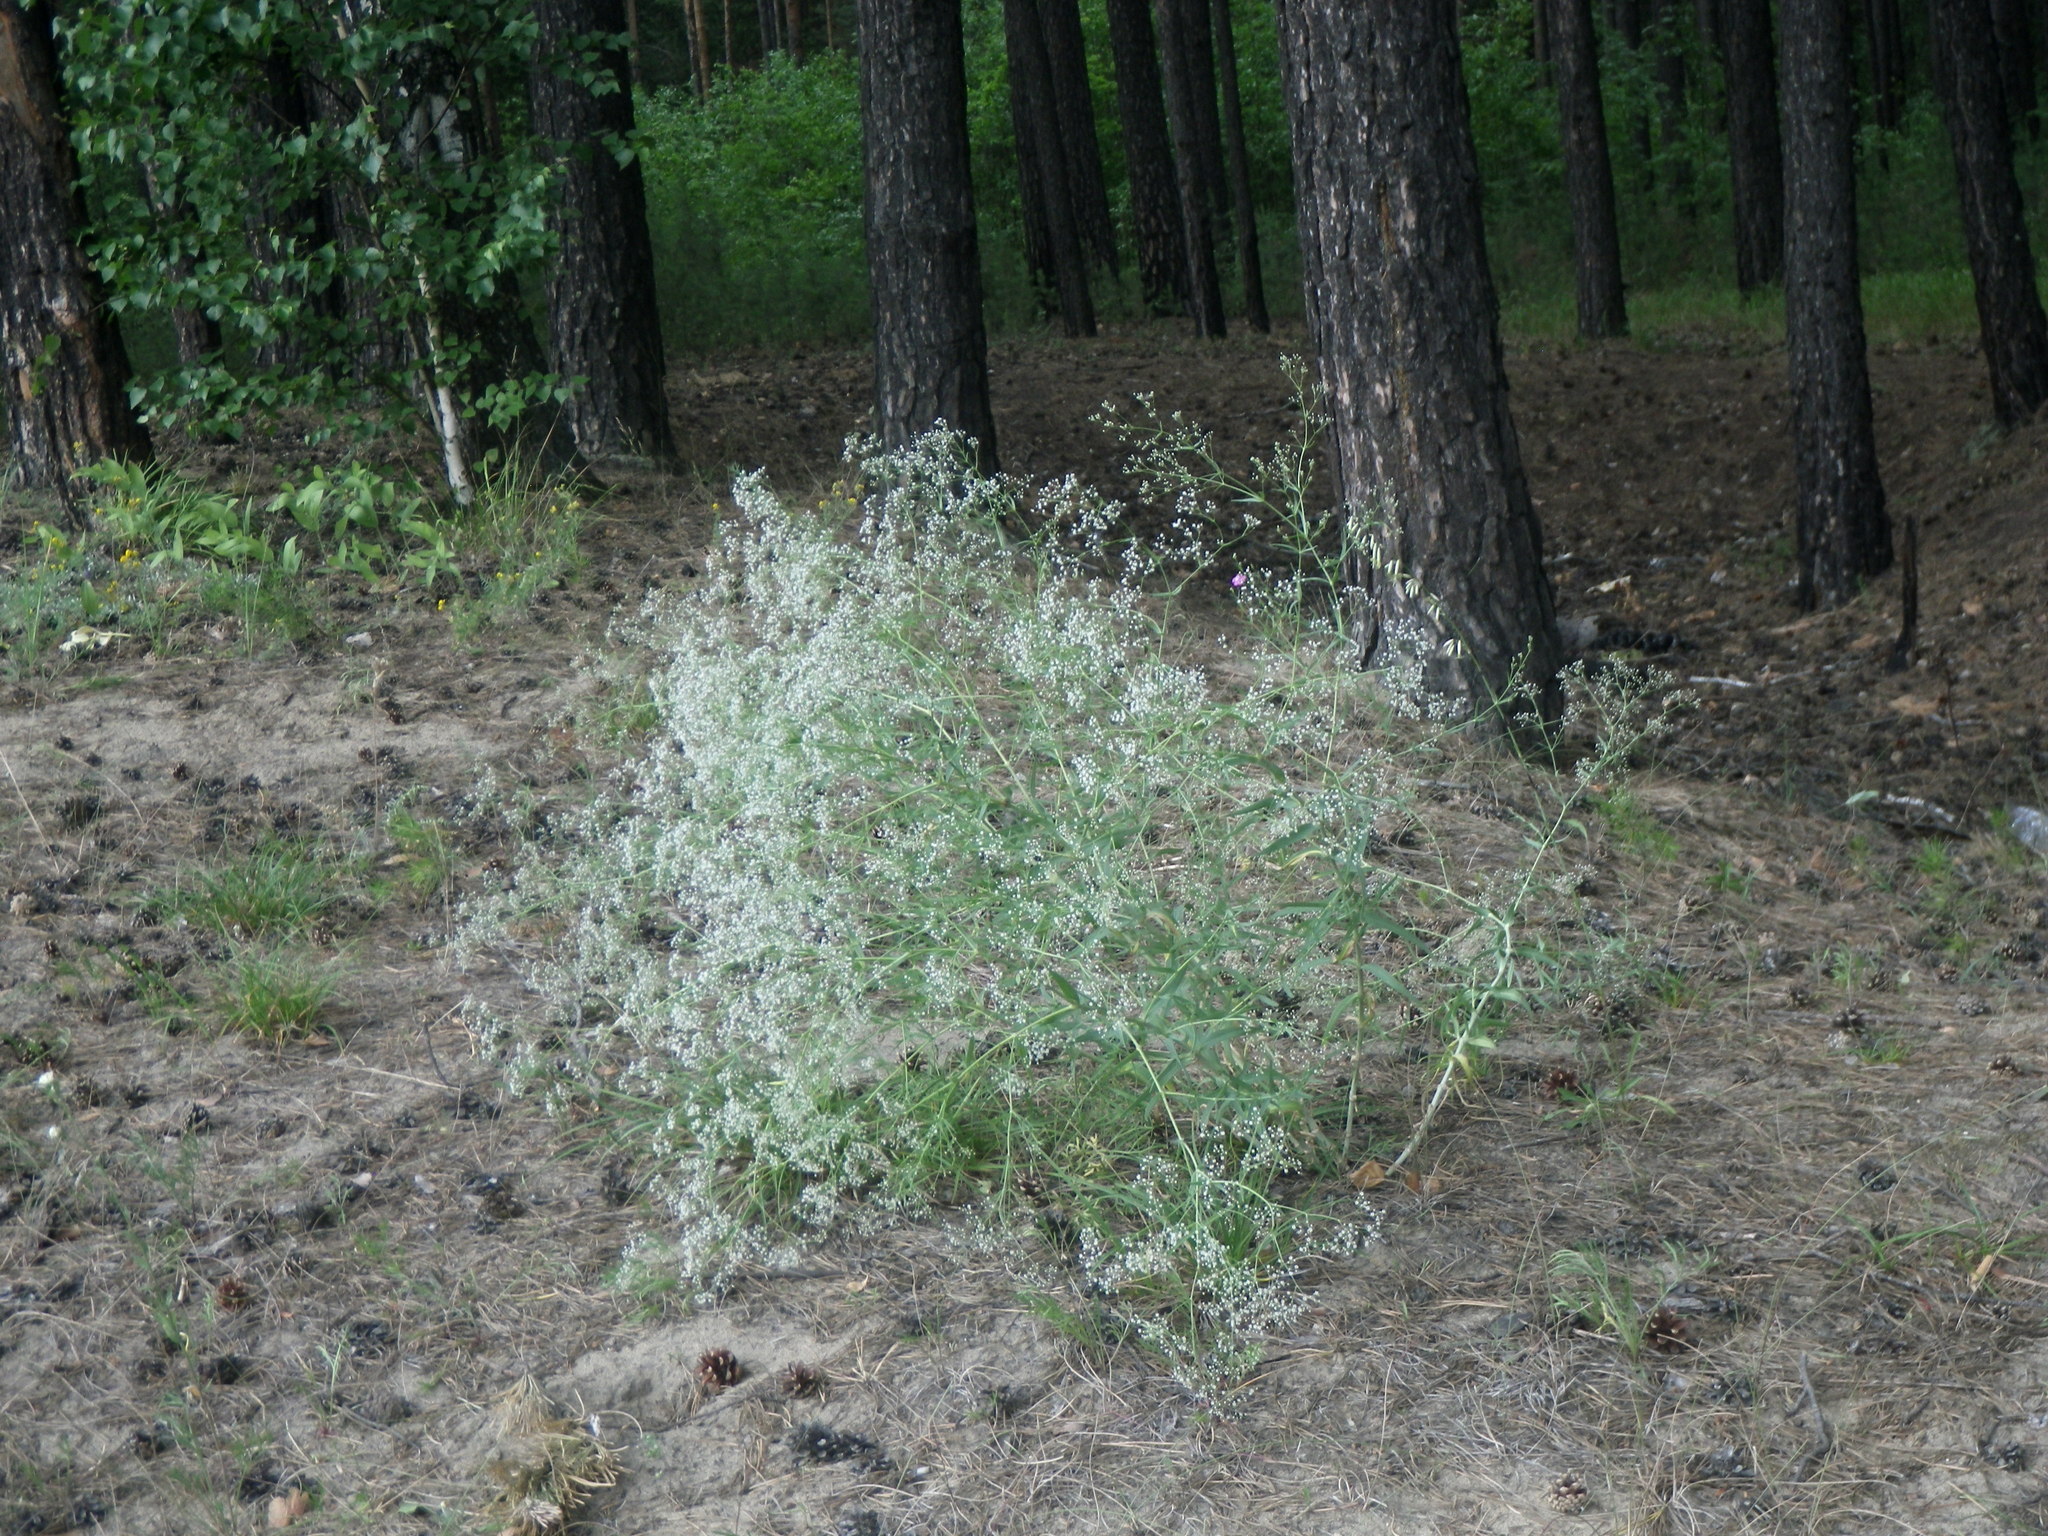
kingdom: Plantae
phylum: Tracheophyta
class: Magnoliopsida
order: Caryophyllales
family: Caryophyllaceae
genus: Gypsophila
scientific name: Gypsophila paniculata
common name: Baby's-breath
